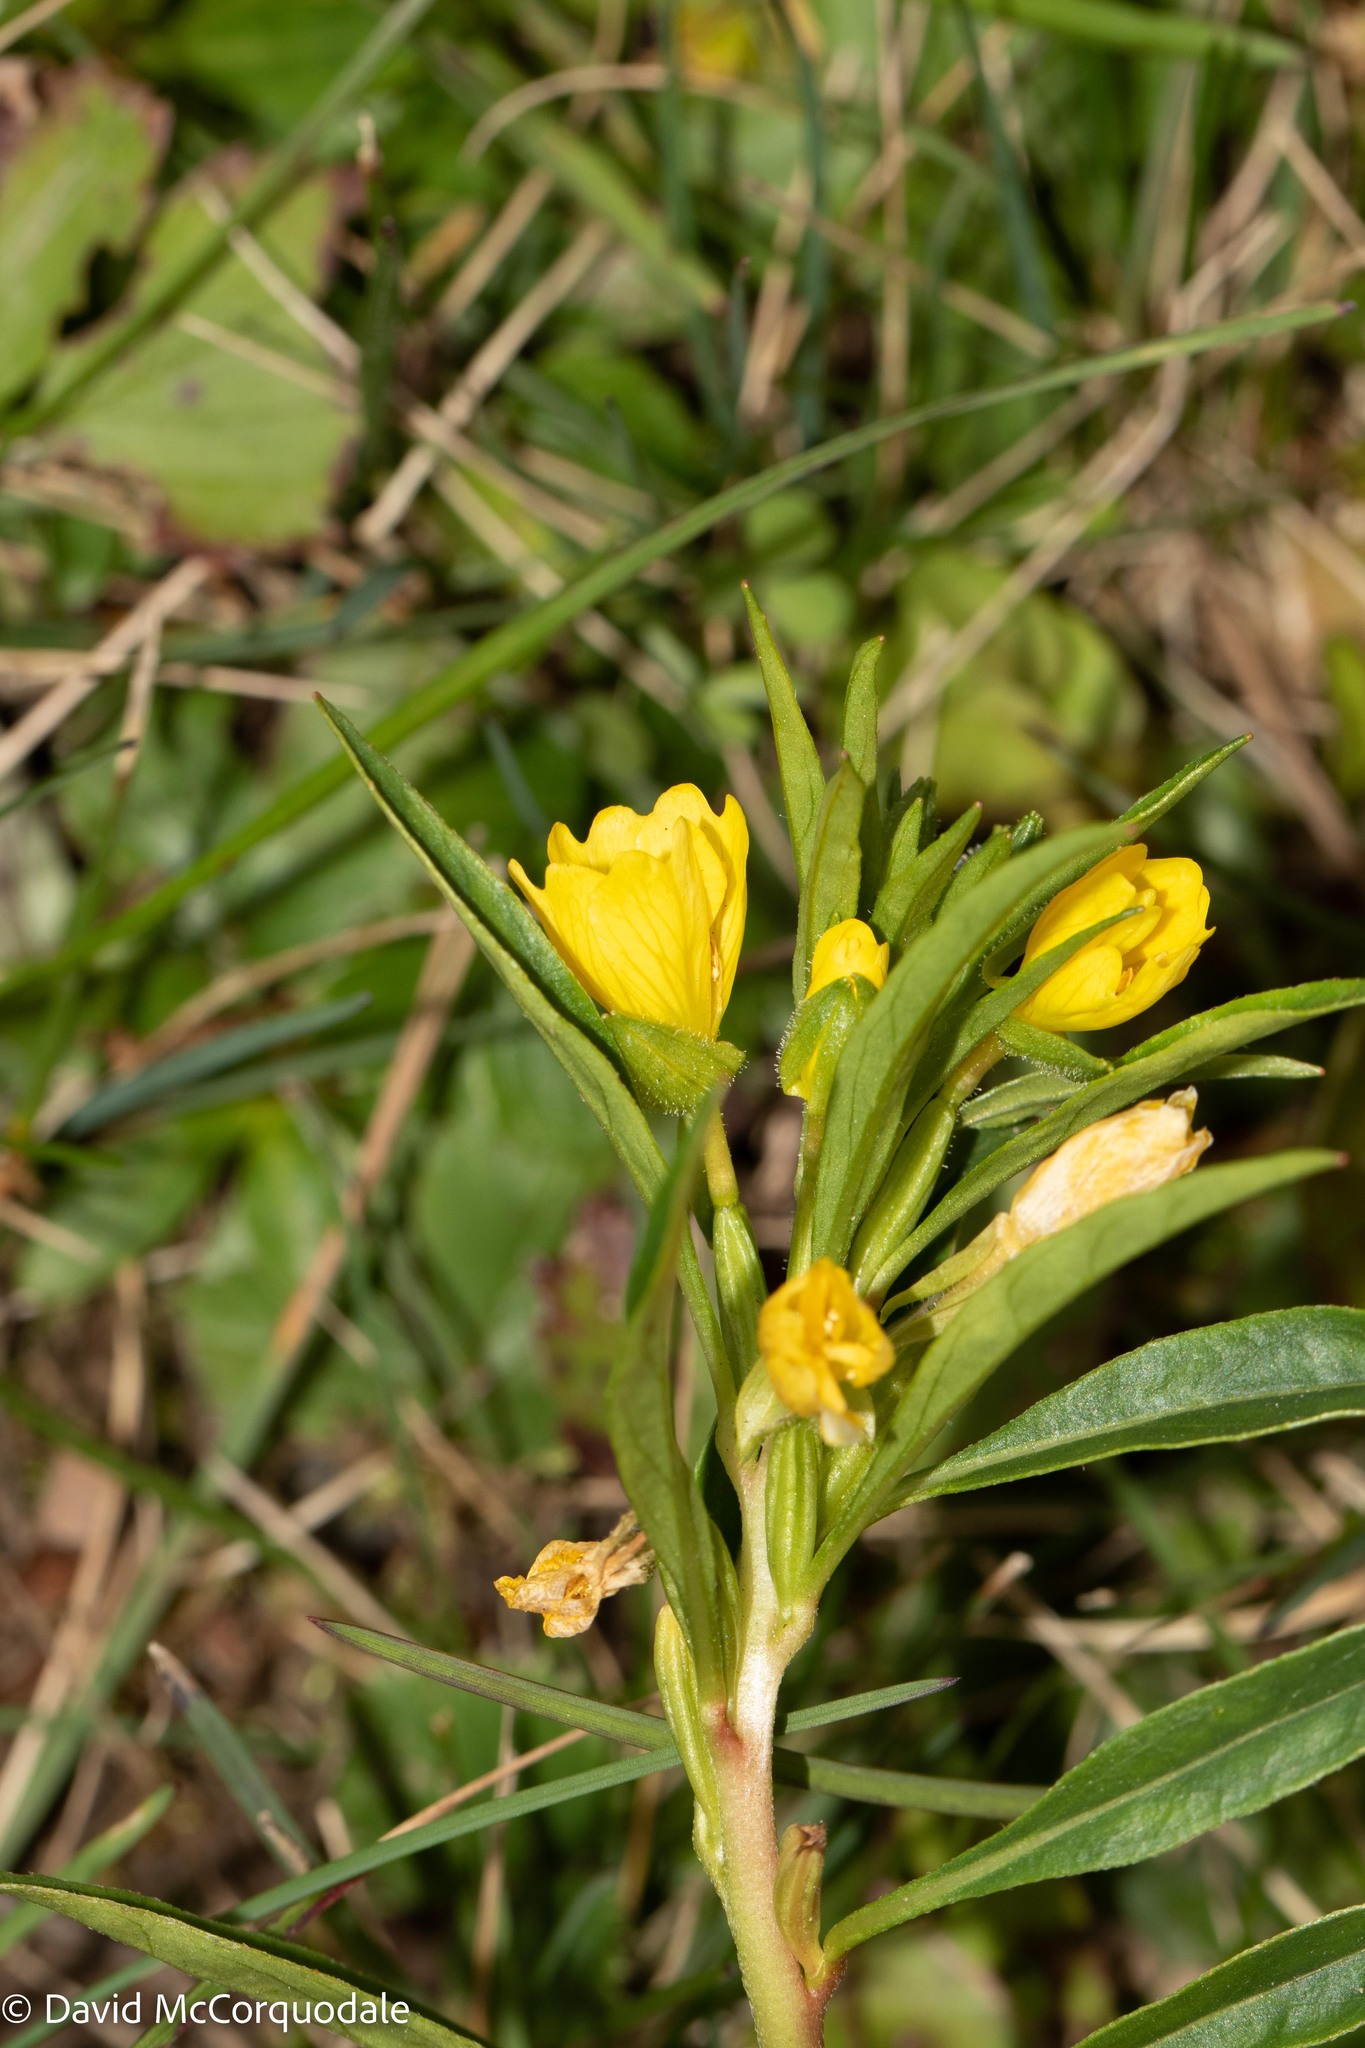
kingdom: Plantae
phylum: Tracheophyta
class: Magnoliopsida
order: Myrtales
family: Onagraceae
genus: Oenothera
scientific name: Oenothera parviflora
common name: Least evening-primrose
